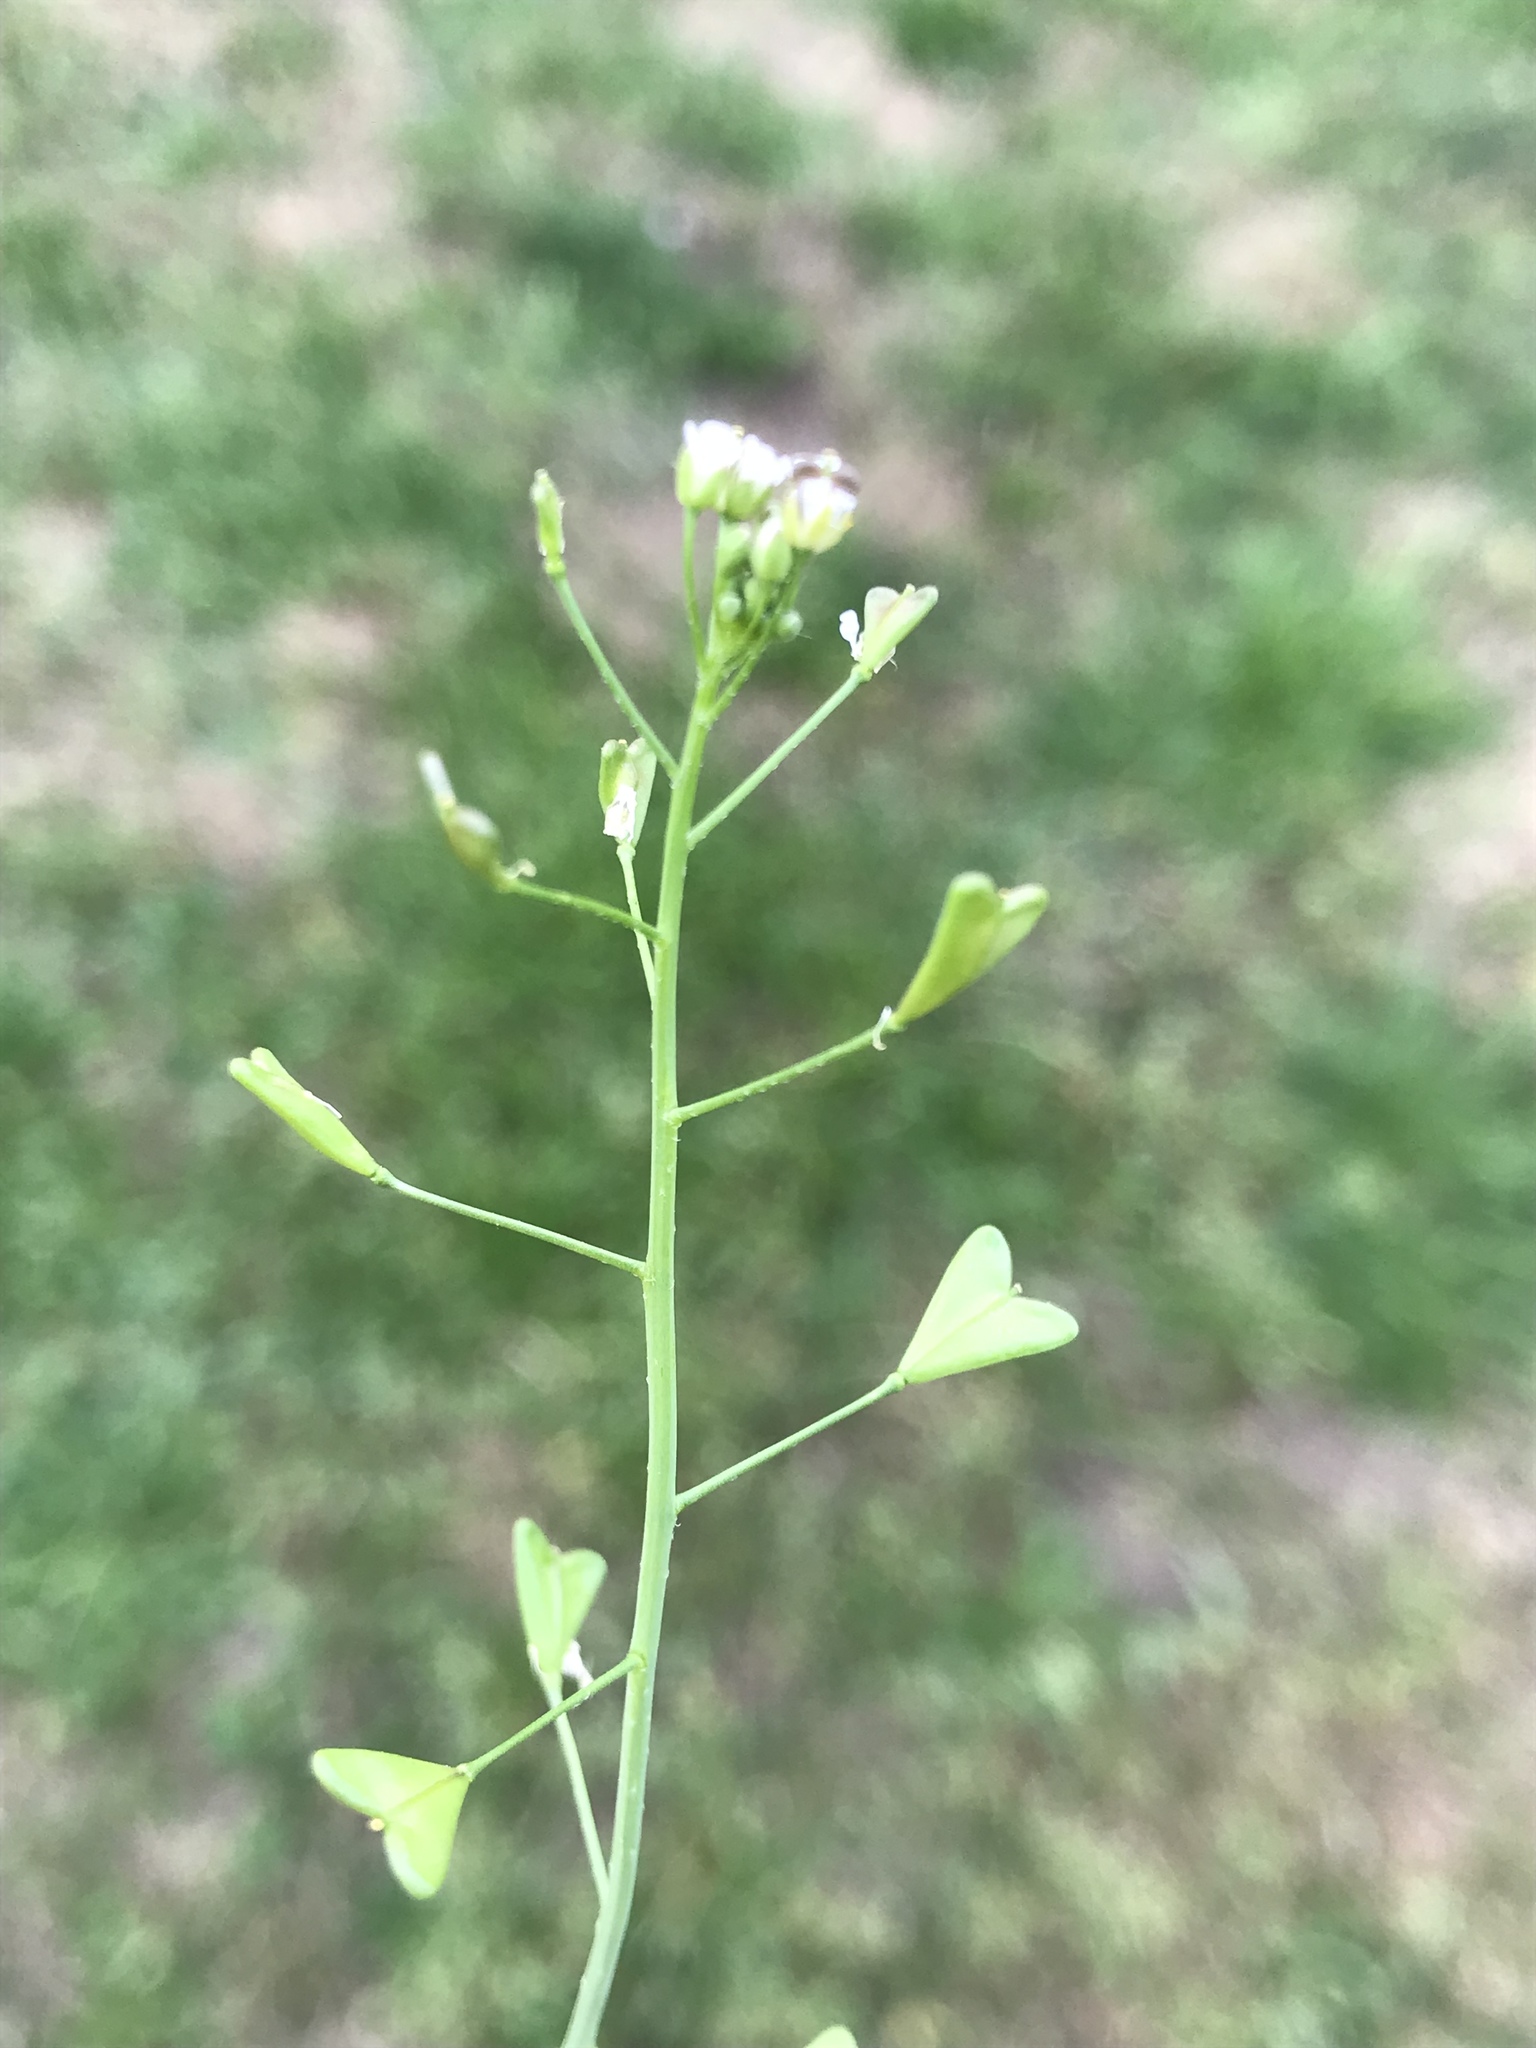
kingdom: Plantae
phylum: Tracheophyta
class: Magnoliopsida
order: Brassicales
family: Brassicaceae
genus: Capsella
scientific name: Capsella bursa-pastoris
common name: Shepherd's purse
